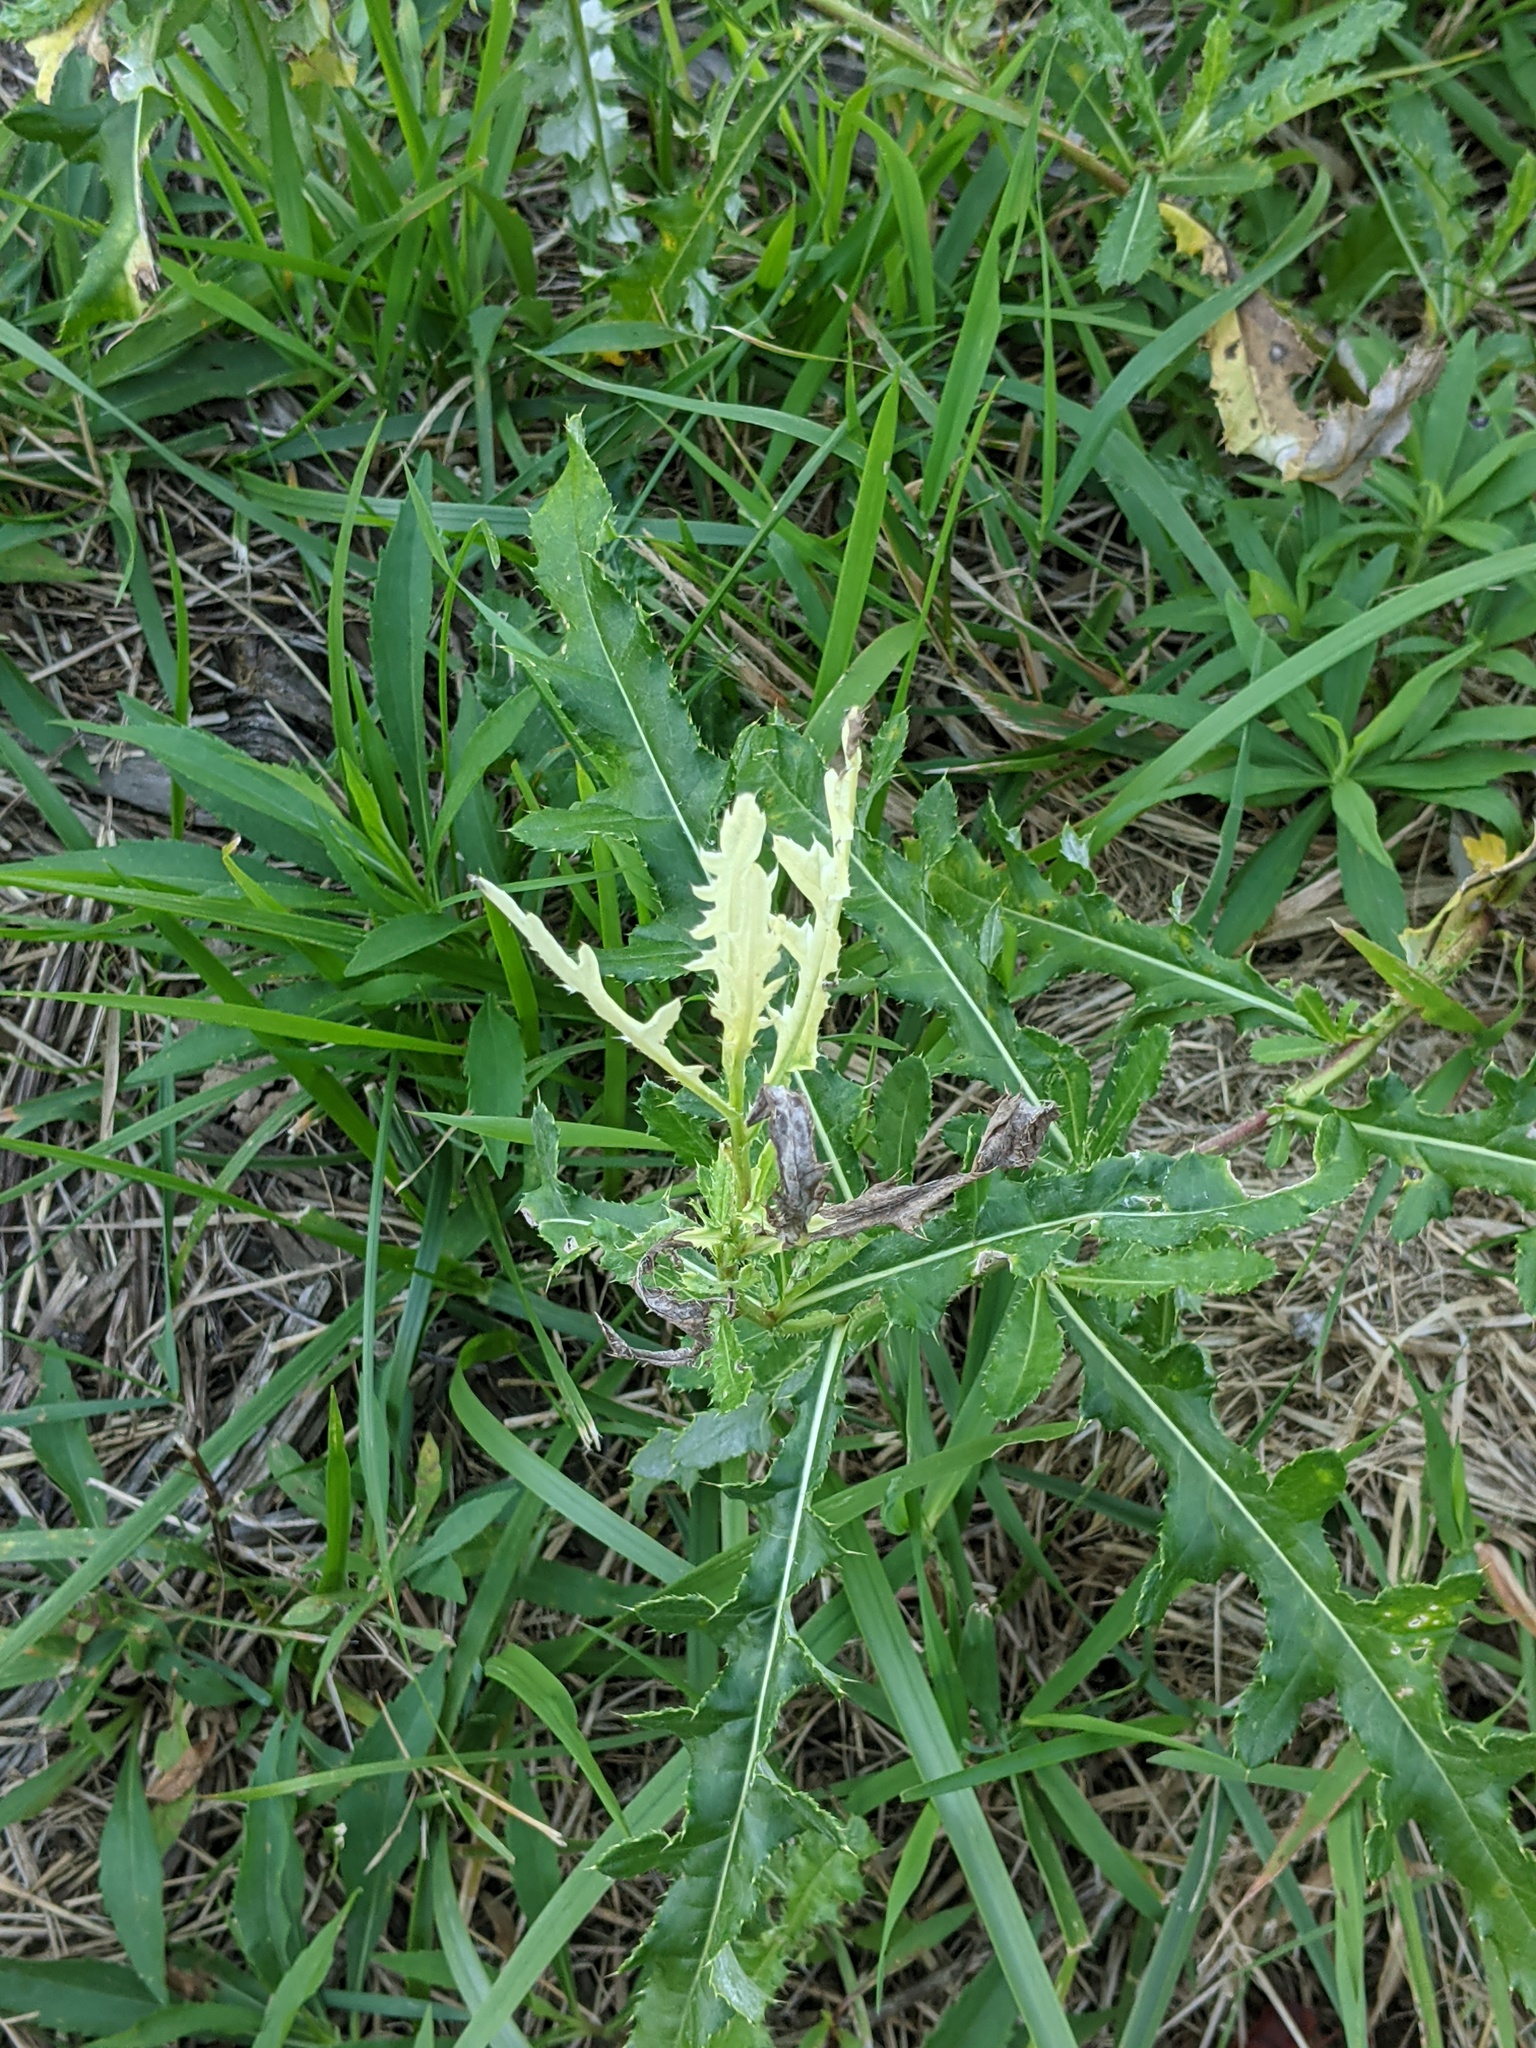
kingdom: Bacteria
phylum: Proteobacteria
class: Gammaproteobacteria
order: Pseudomonadales
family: Pseudomonadaceae
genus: Pseudomonas
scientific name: Pseudomonas syringae
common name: Bacterial speck
